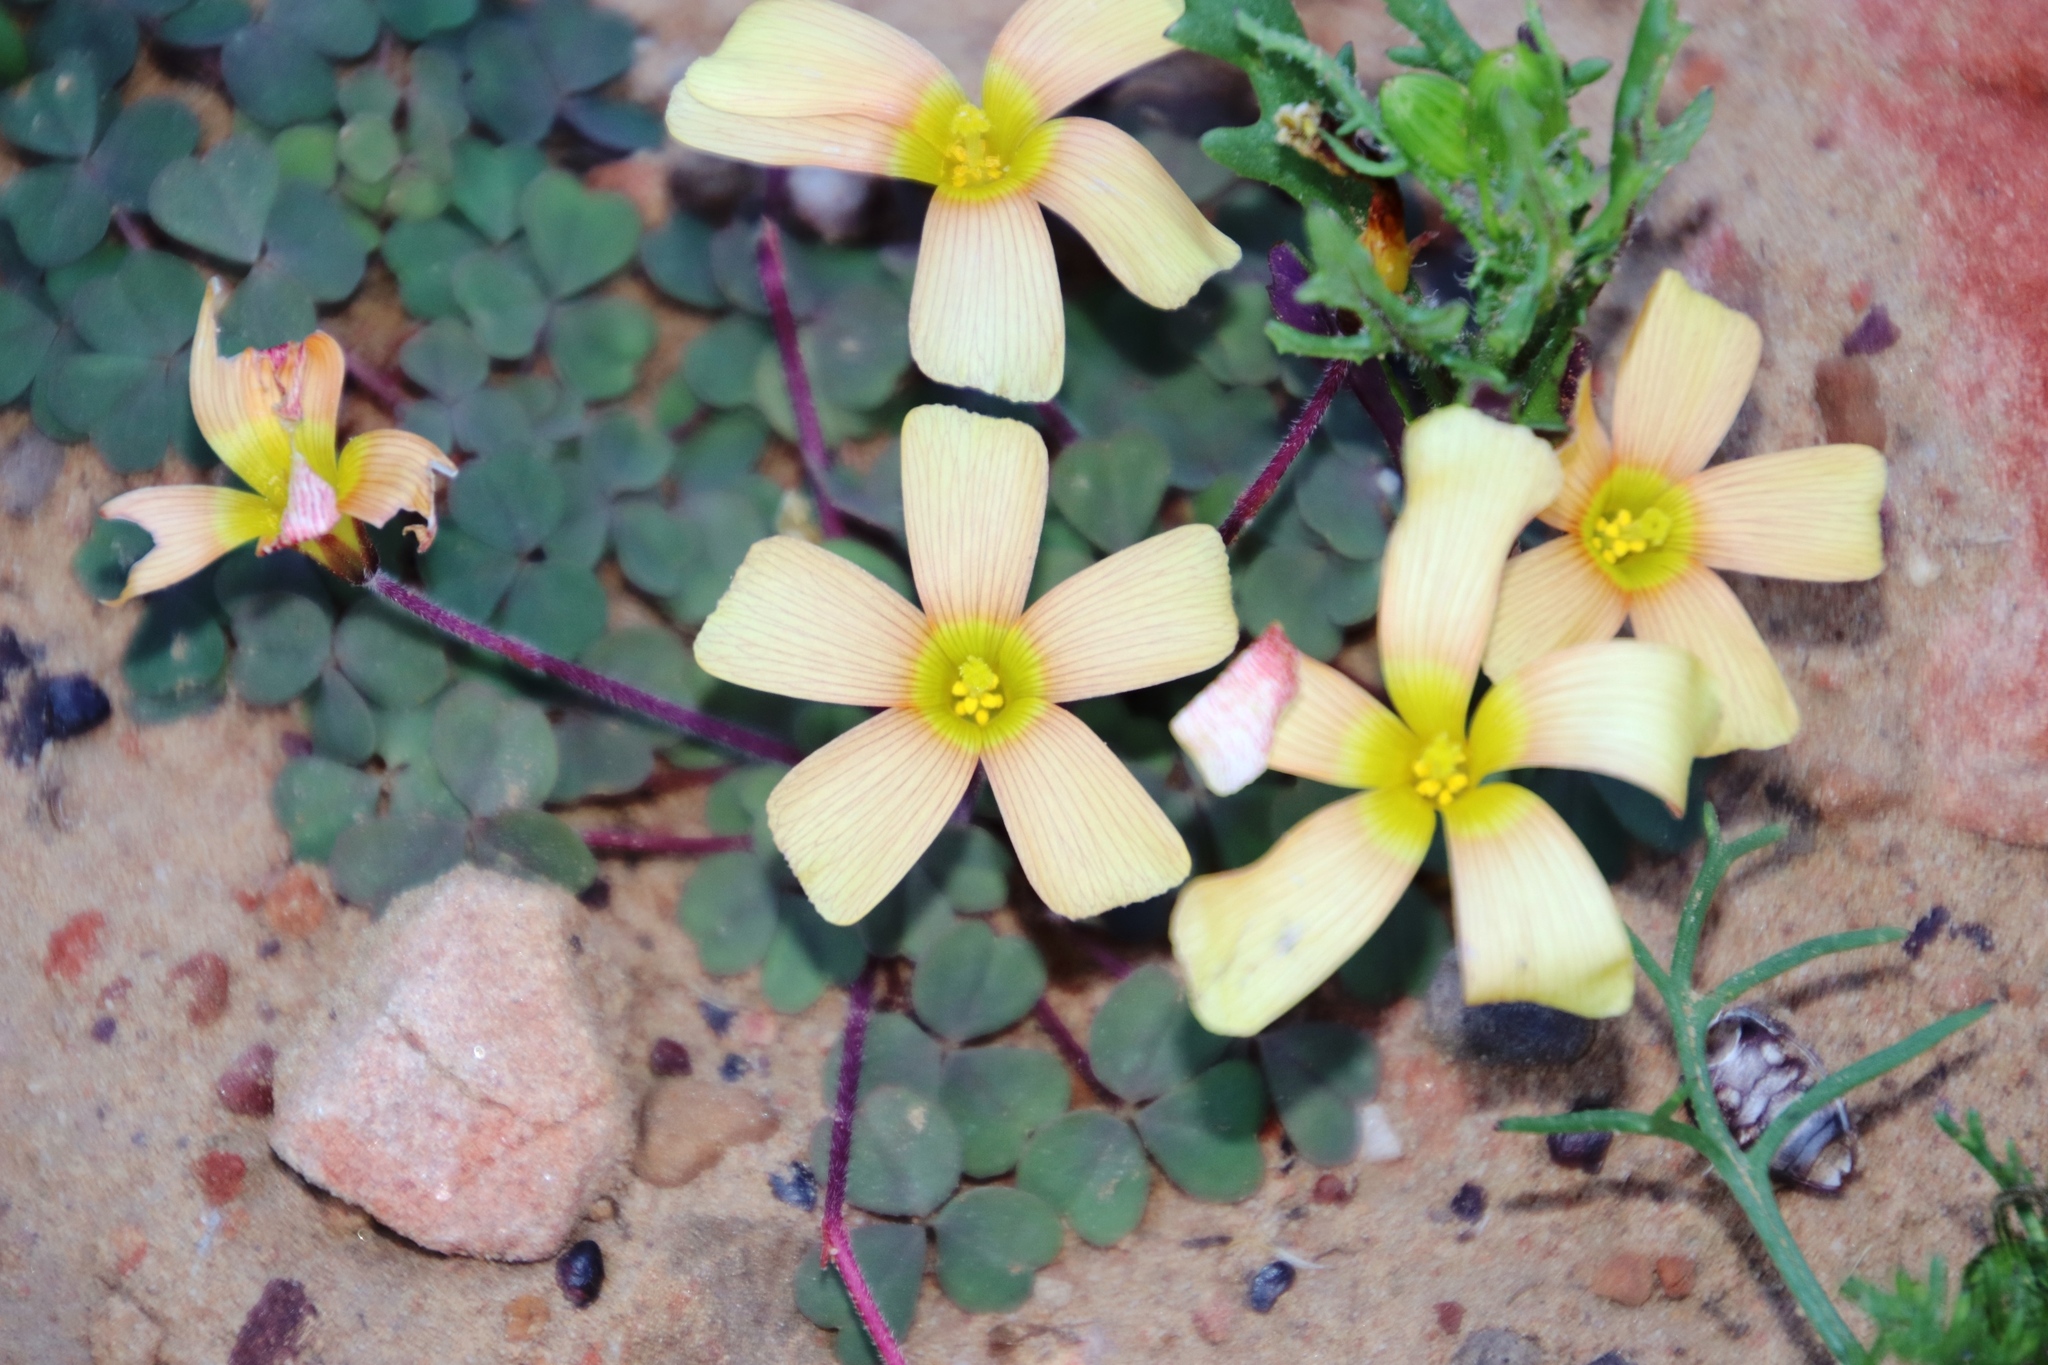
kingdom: Plantae
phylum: Tracheophyta
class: Magnoliopsida
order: Oxalidales
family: Oxalidaceae
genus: Oxalis
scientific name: Oxalis obtusa
